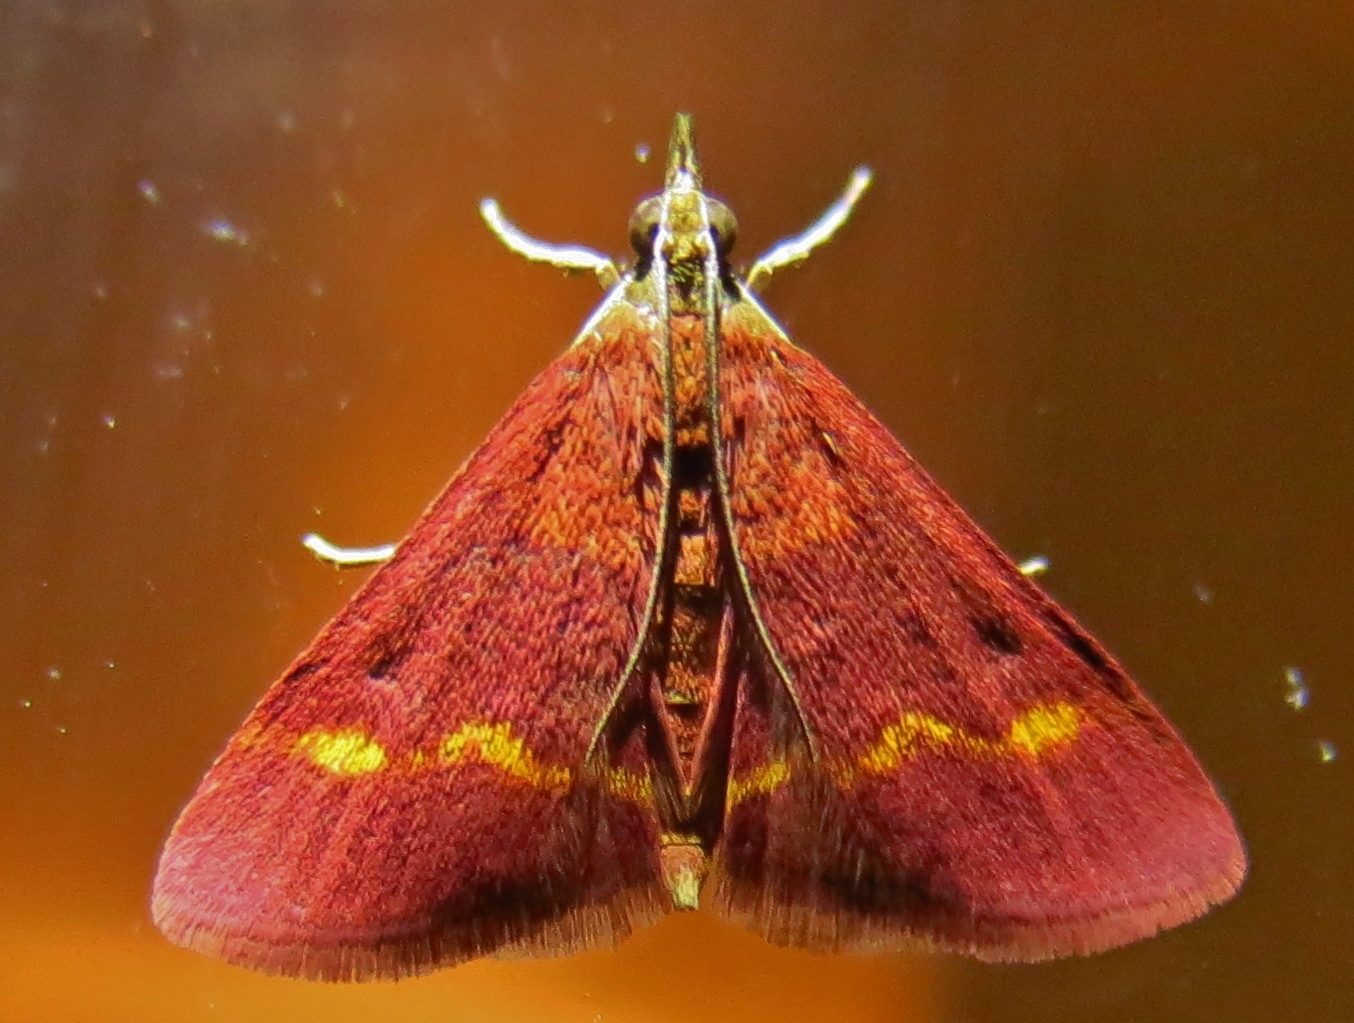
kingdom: Animalia
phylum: Arthropoda
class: Insecta
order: Lepidoptera
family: Crambidae
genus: Pyrausta
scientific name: Pyrausta pseuderosnealis
